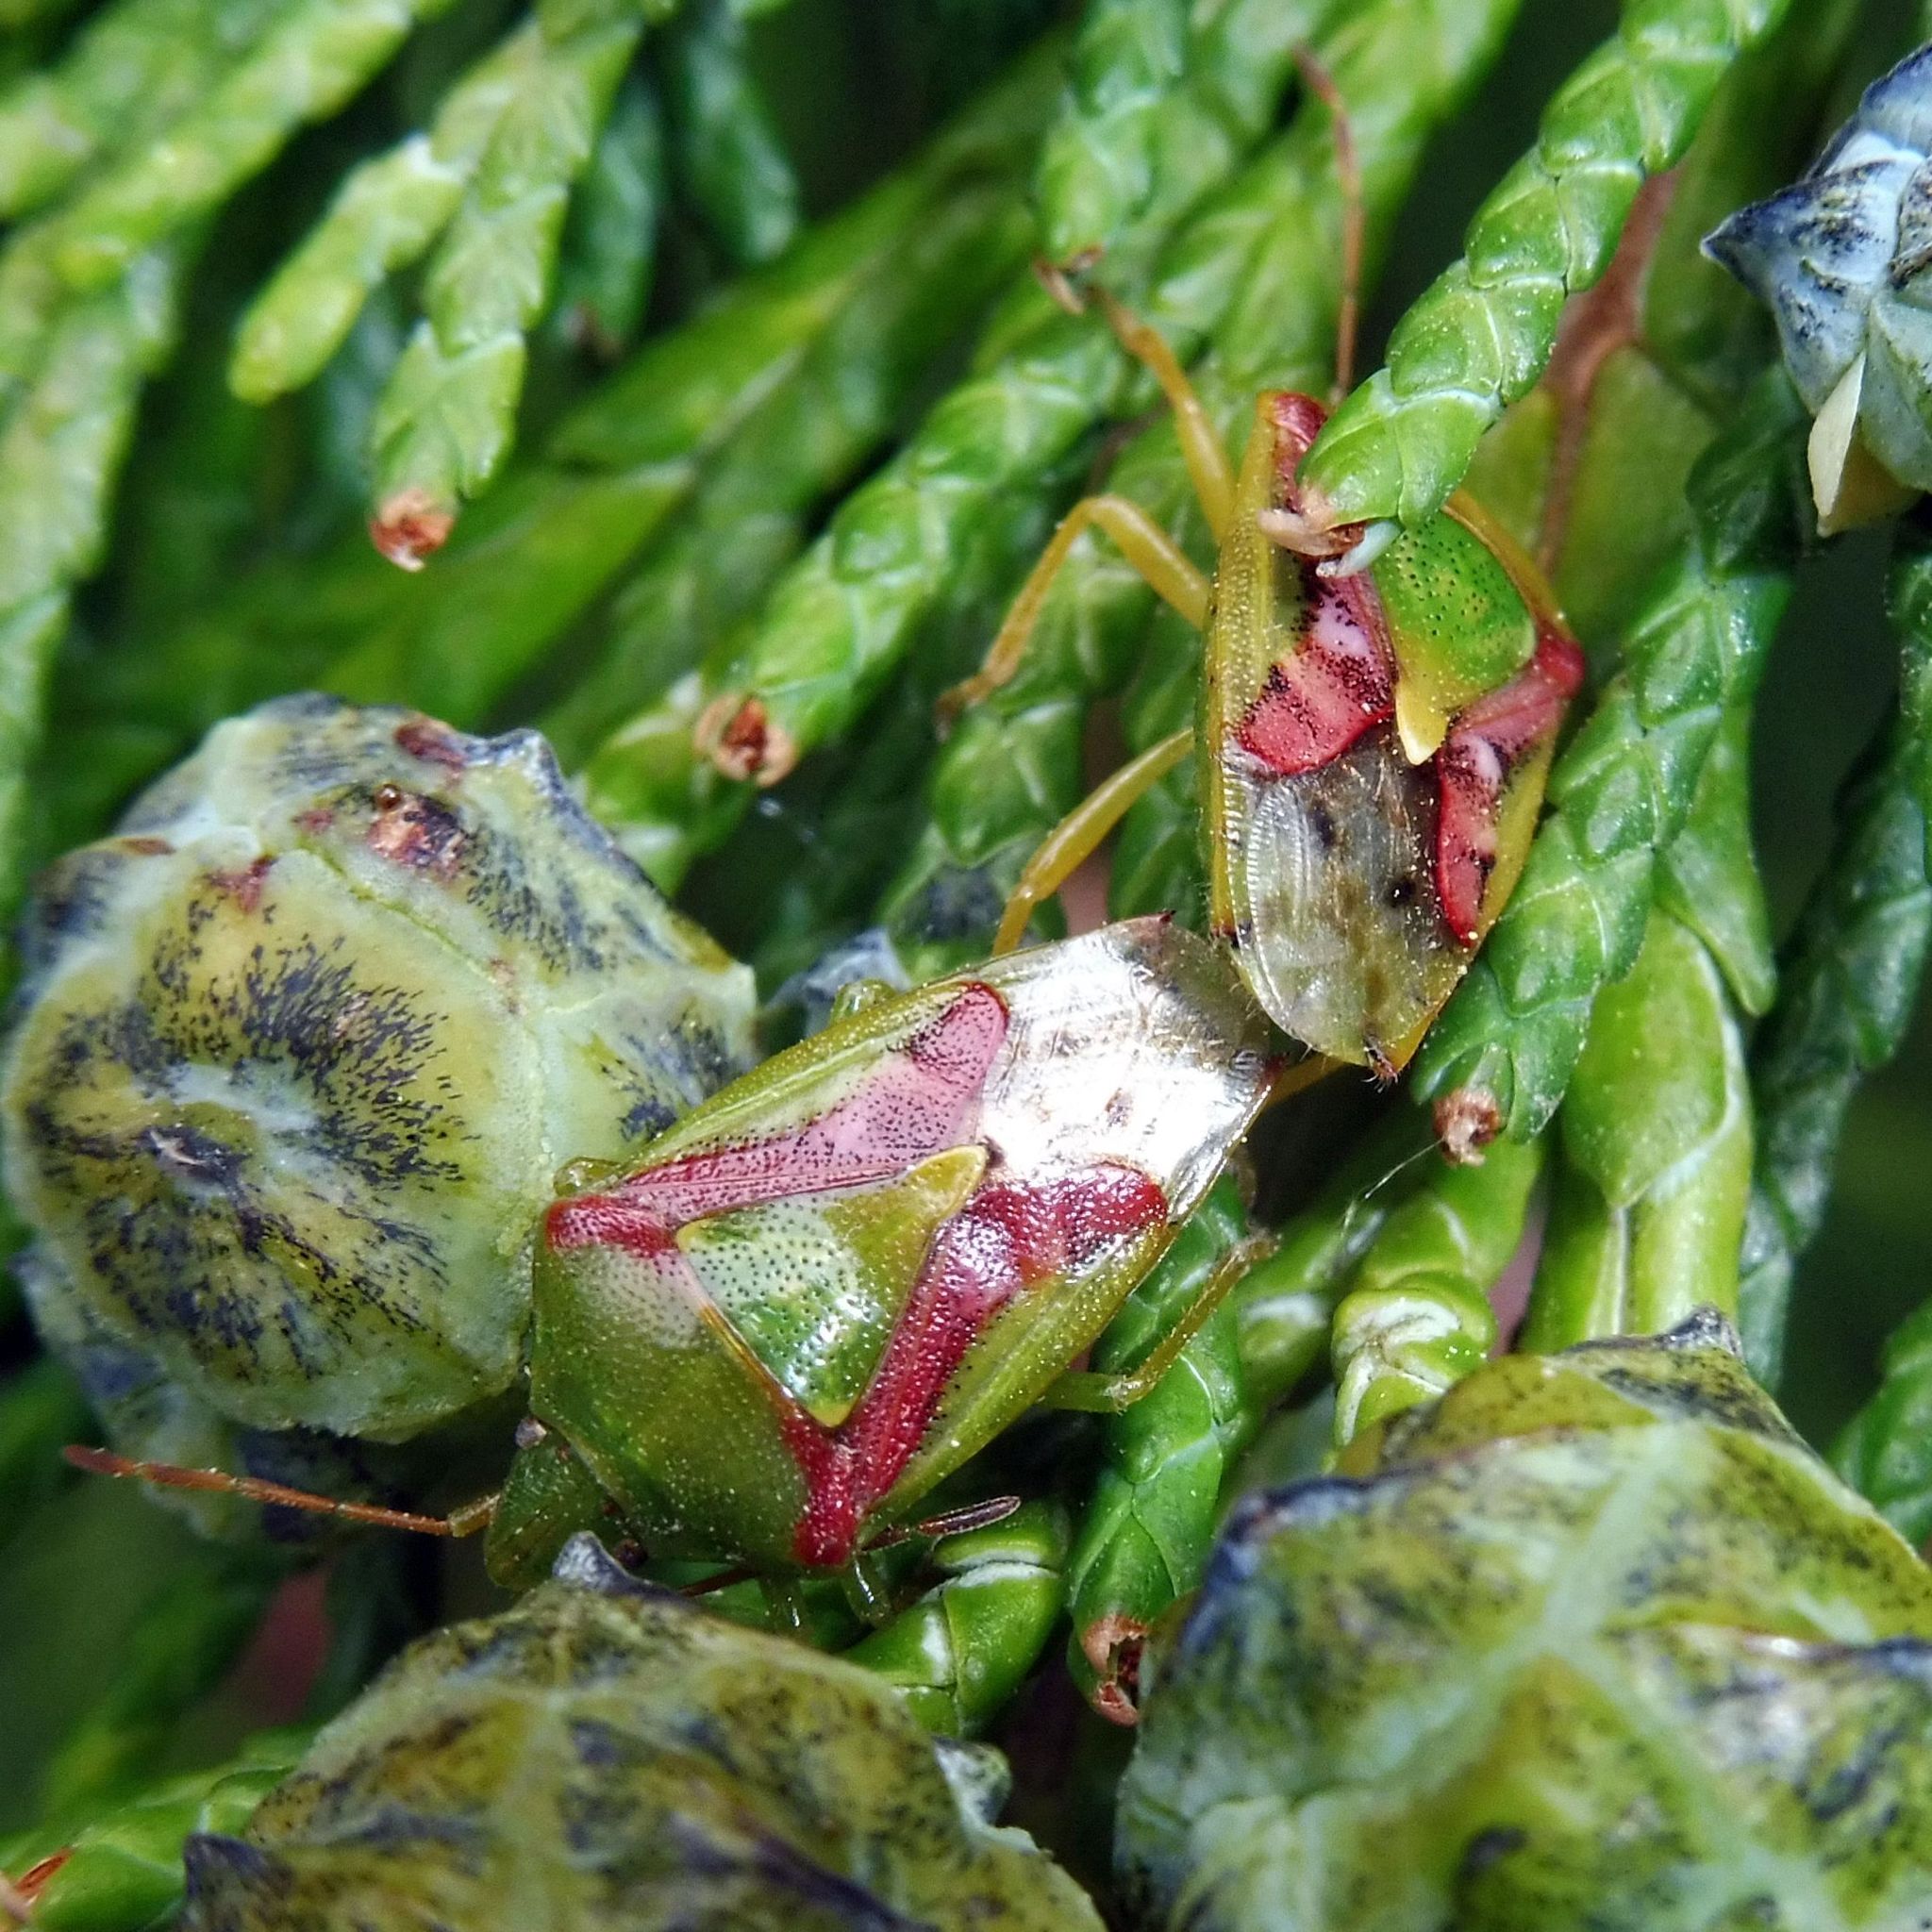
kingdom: Animalia
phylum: Arthropoda
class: Insecta
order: Hemiptera
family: Acanthosomatidae
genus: Cyphostethus
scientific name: Cyphostethus tristriatus
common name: Juniper shieldbug
